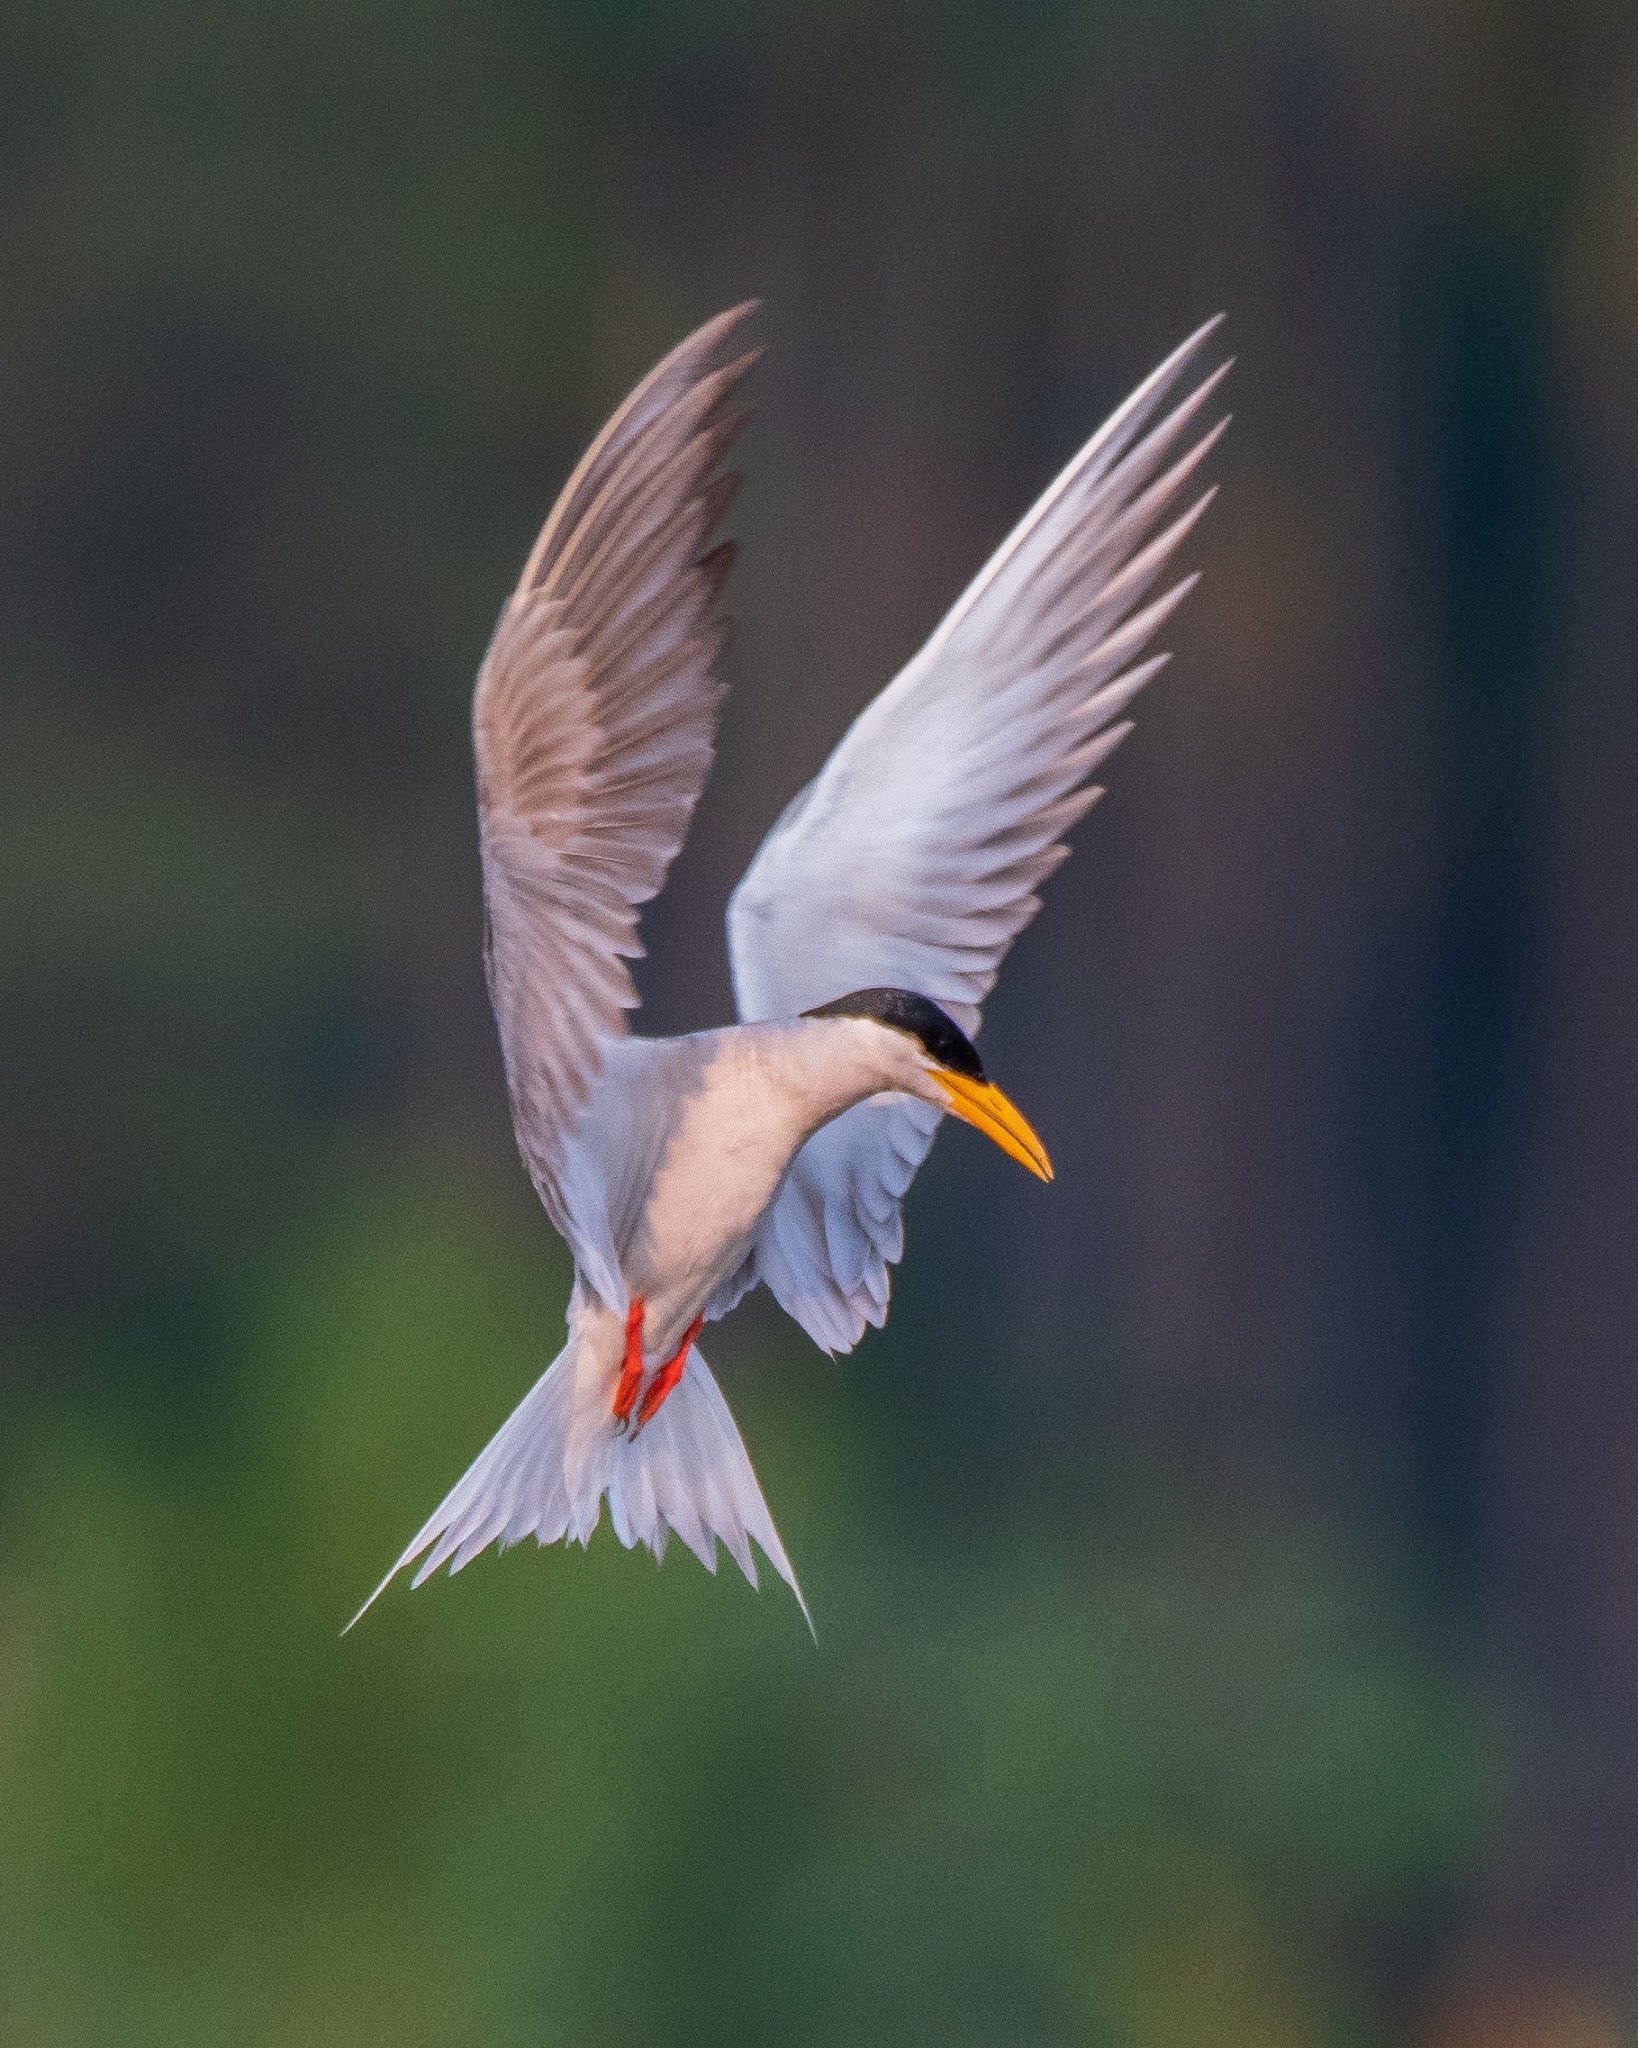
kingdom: Animalia
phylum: Chordata
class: Aves
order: Charadriiformes
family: Laridae
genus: Sterna
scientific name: Sterna aurantia
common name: River tern
